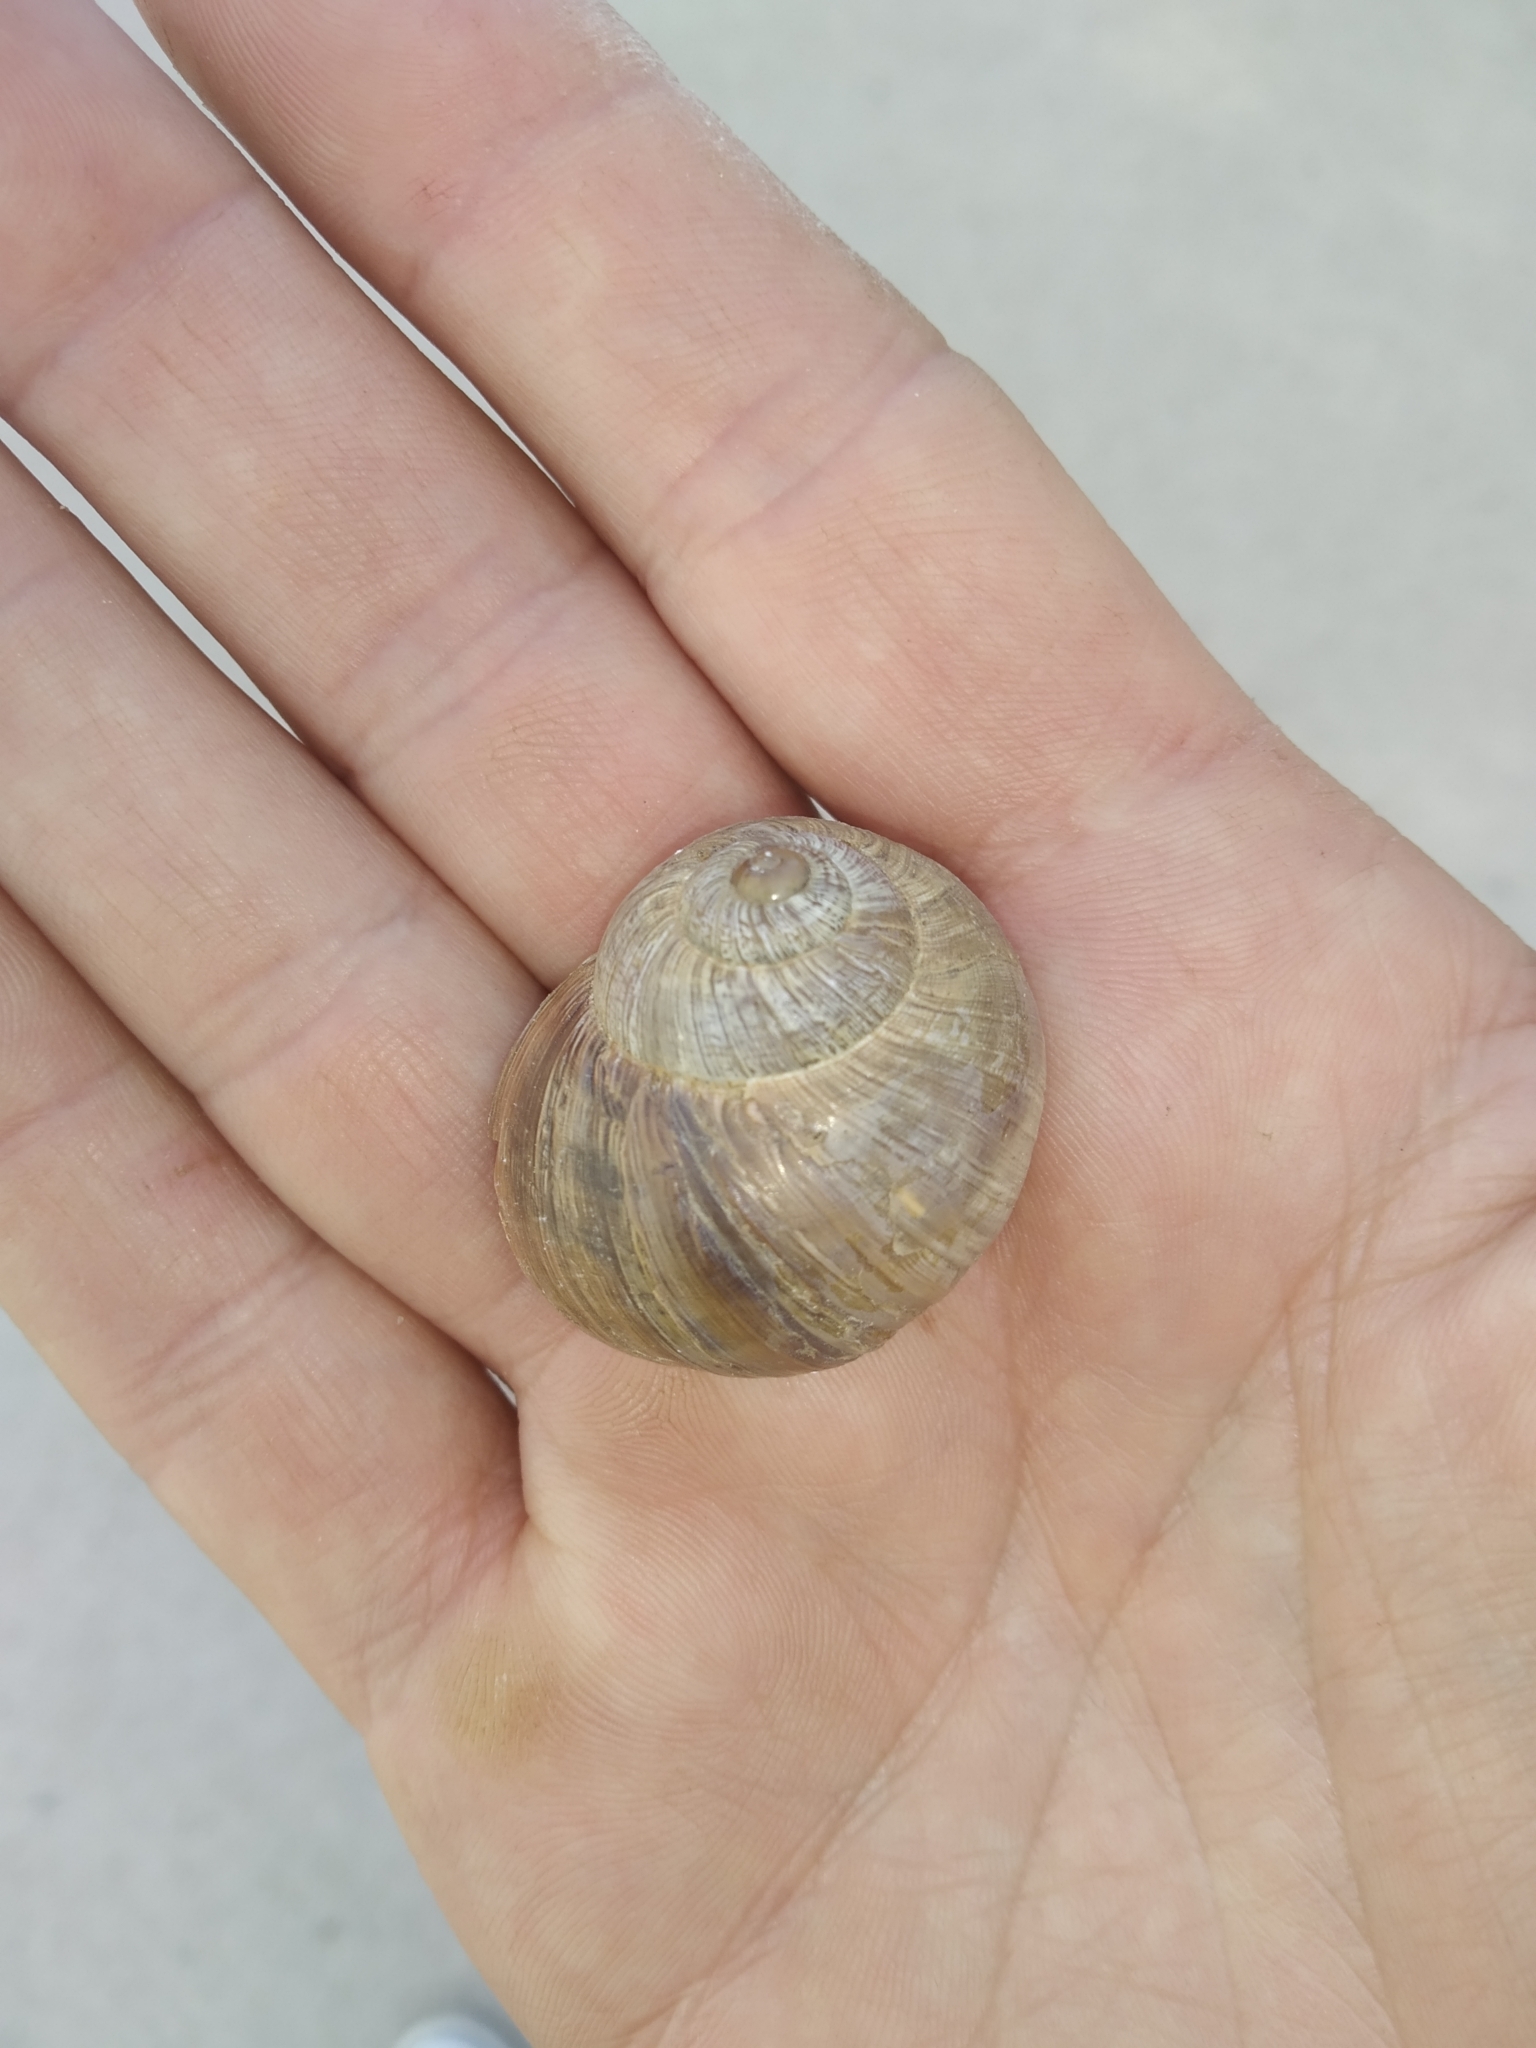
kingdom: Animalia
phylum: Mollusca
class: Gastropoda
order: Stylommatophora
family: Helicidae
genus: Helix
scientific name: Helix melanostoma
